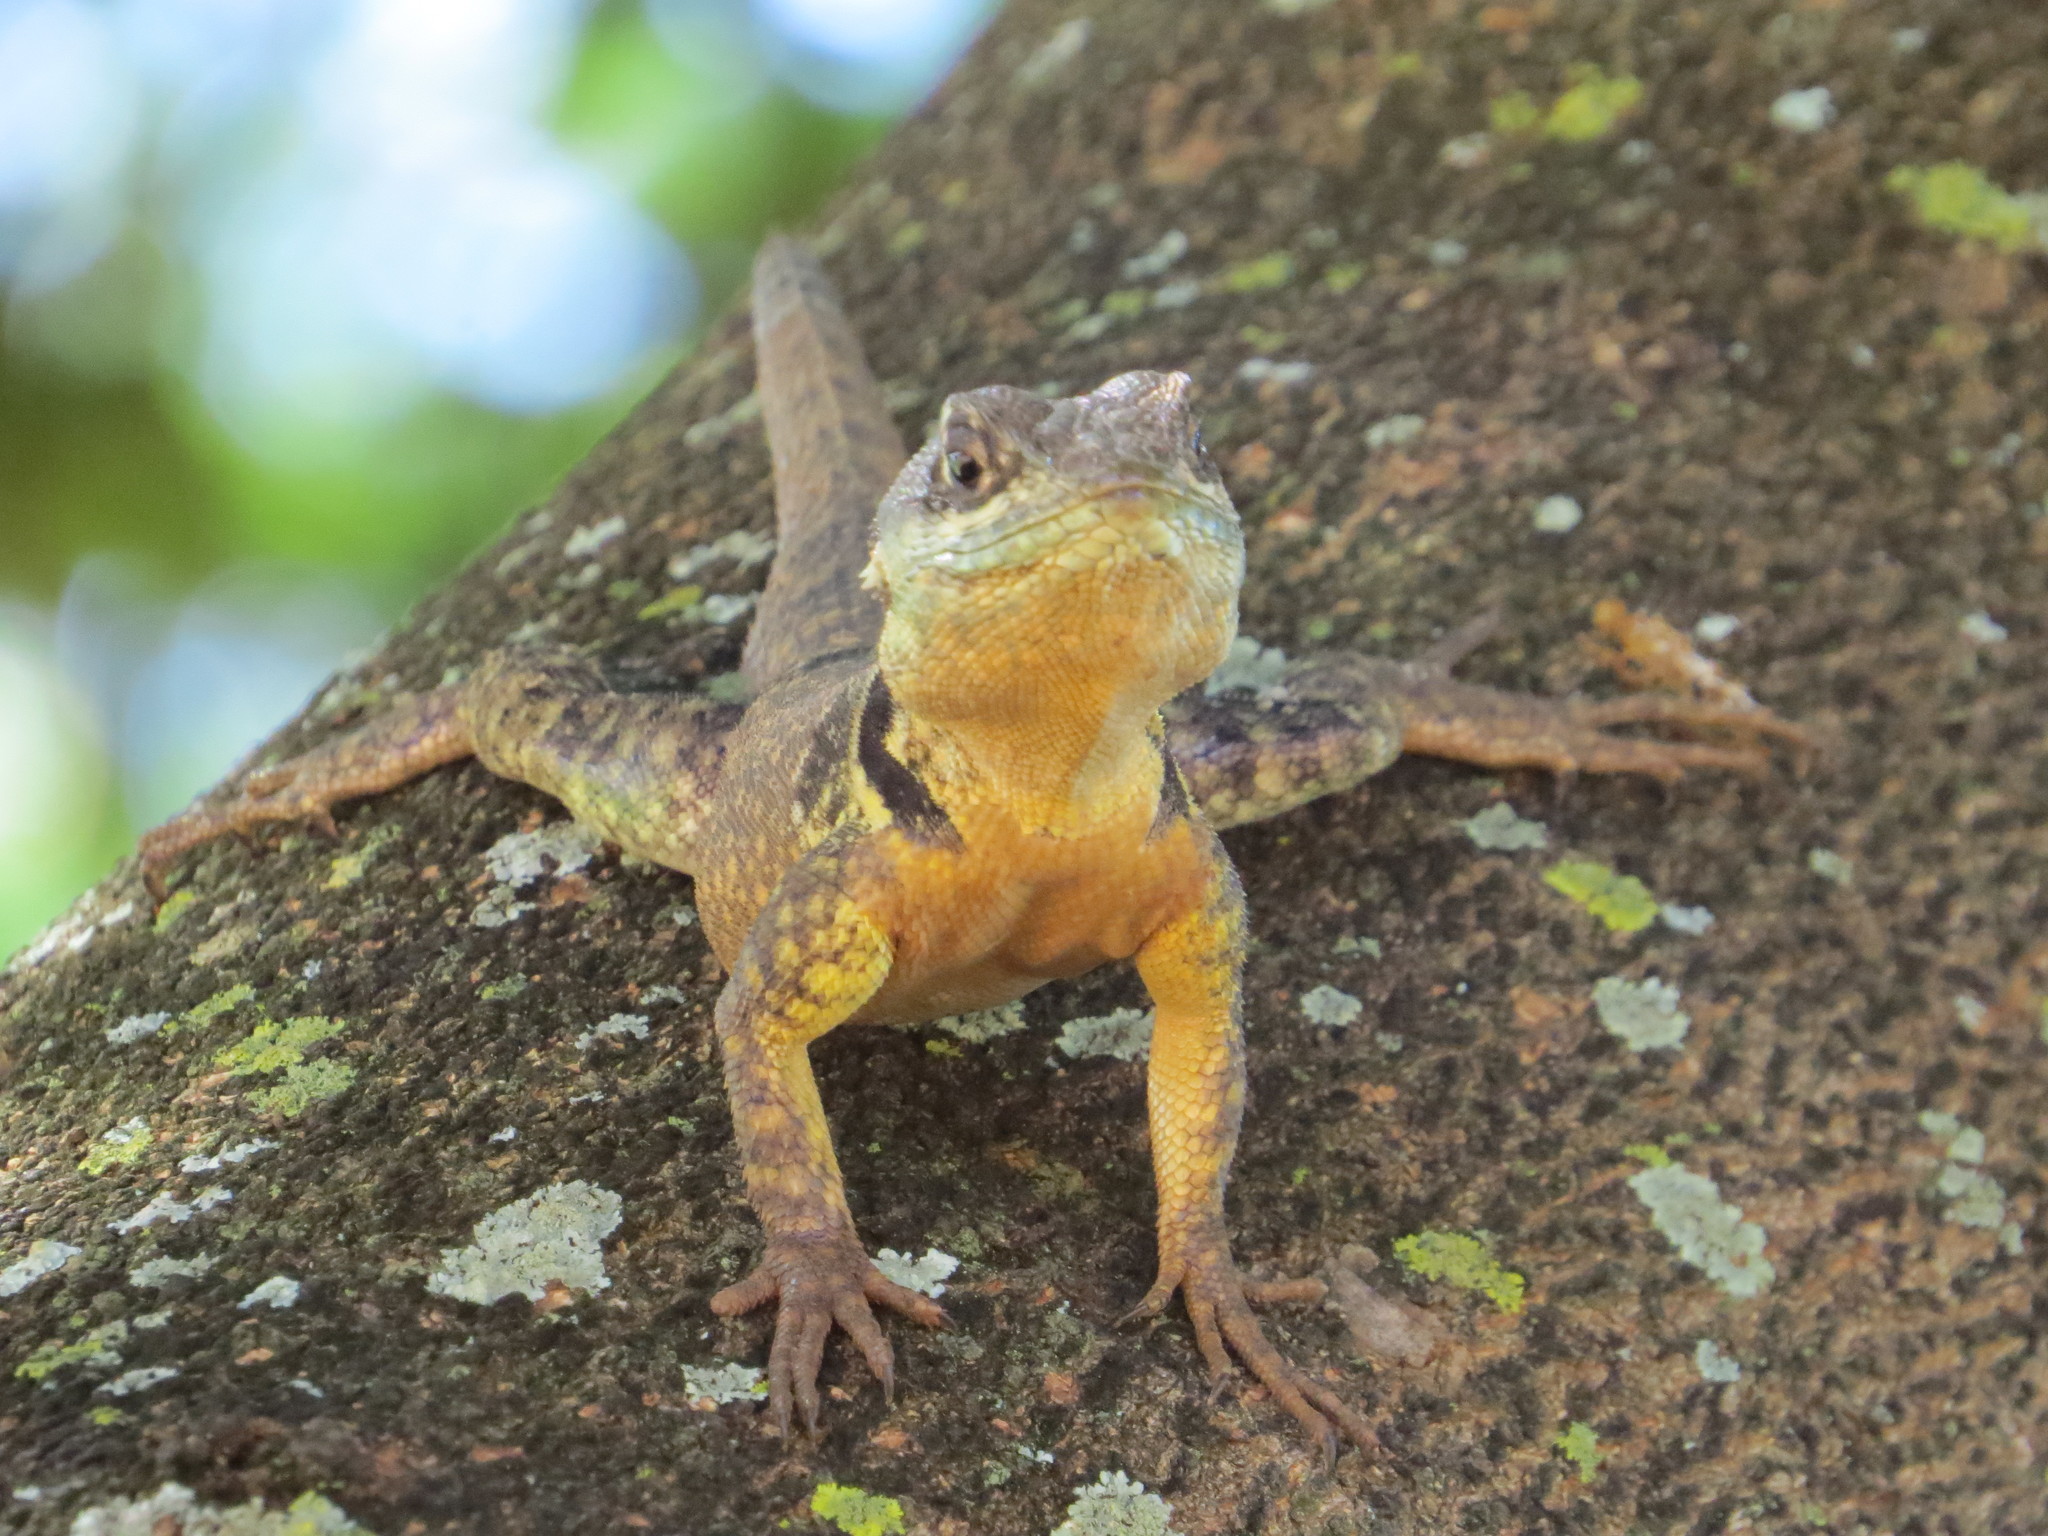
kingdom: Animalia
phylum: Chordata
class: Squamata
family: Tropiduridae
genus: Tropidurus
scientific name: Tropidurus torquatus
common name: Amazon lava lizard
